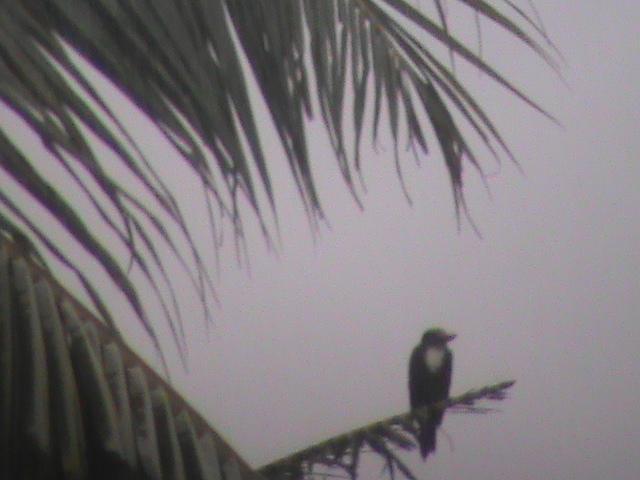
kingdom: Animalia
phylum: Chordata
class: Aves
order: Coraciiformes
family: Alcedinidae
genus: Halcyon
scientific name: Halcyon smyrnensis
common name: White-throated kingfisher
